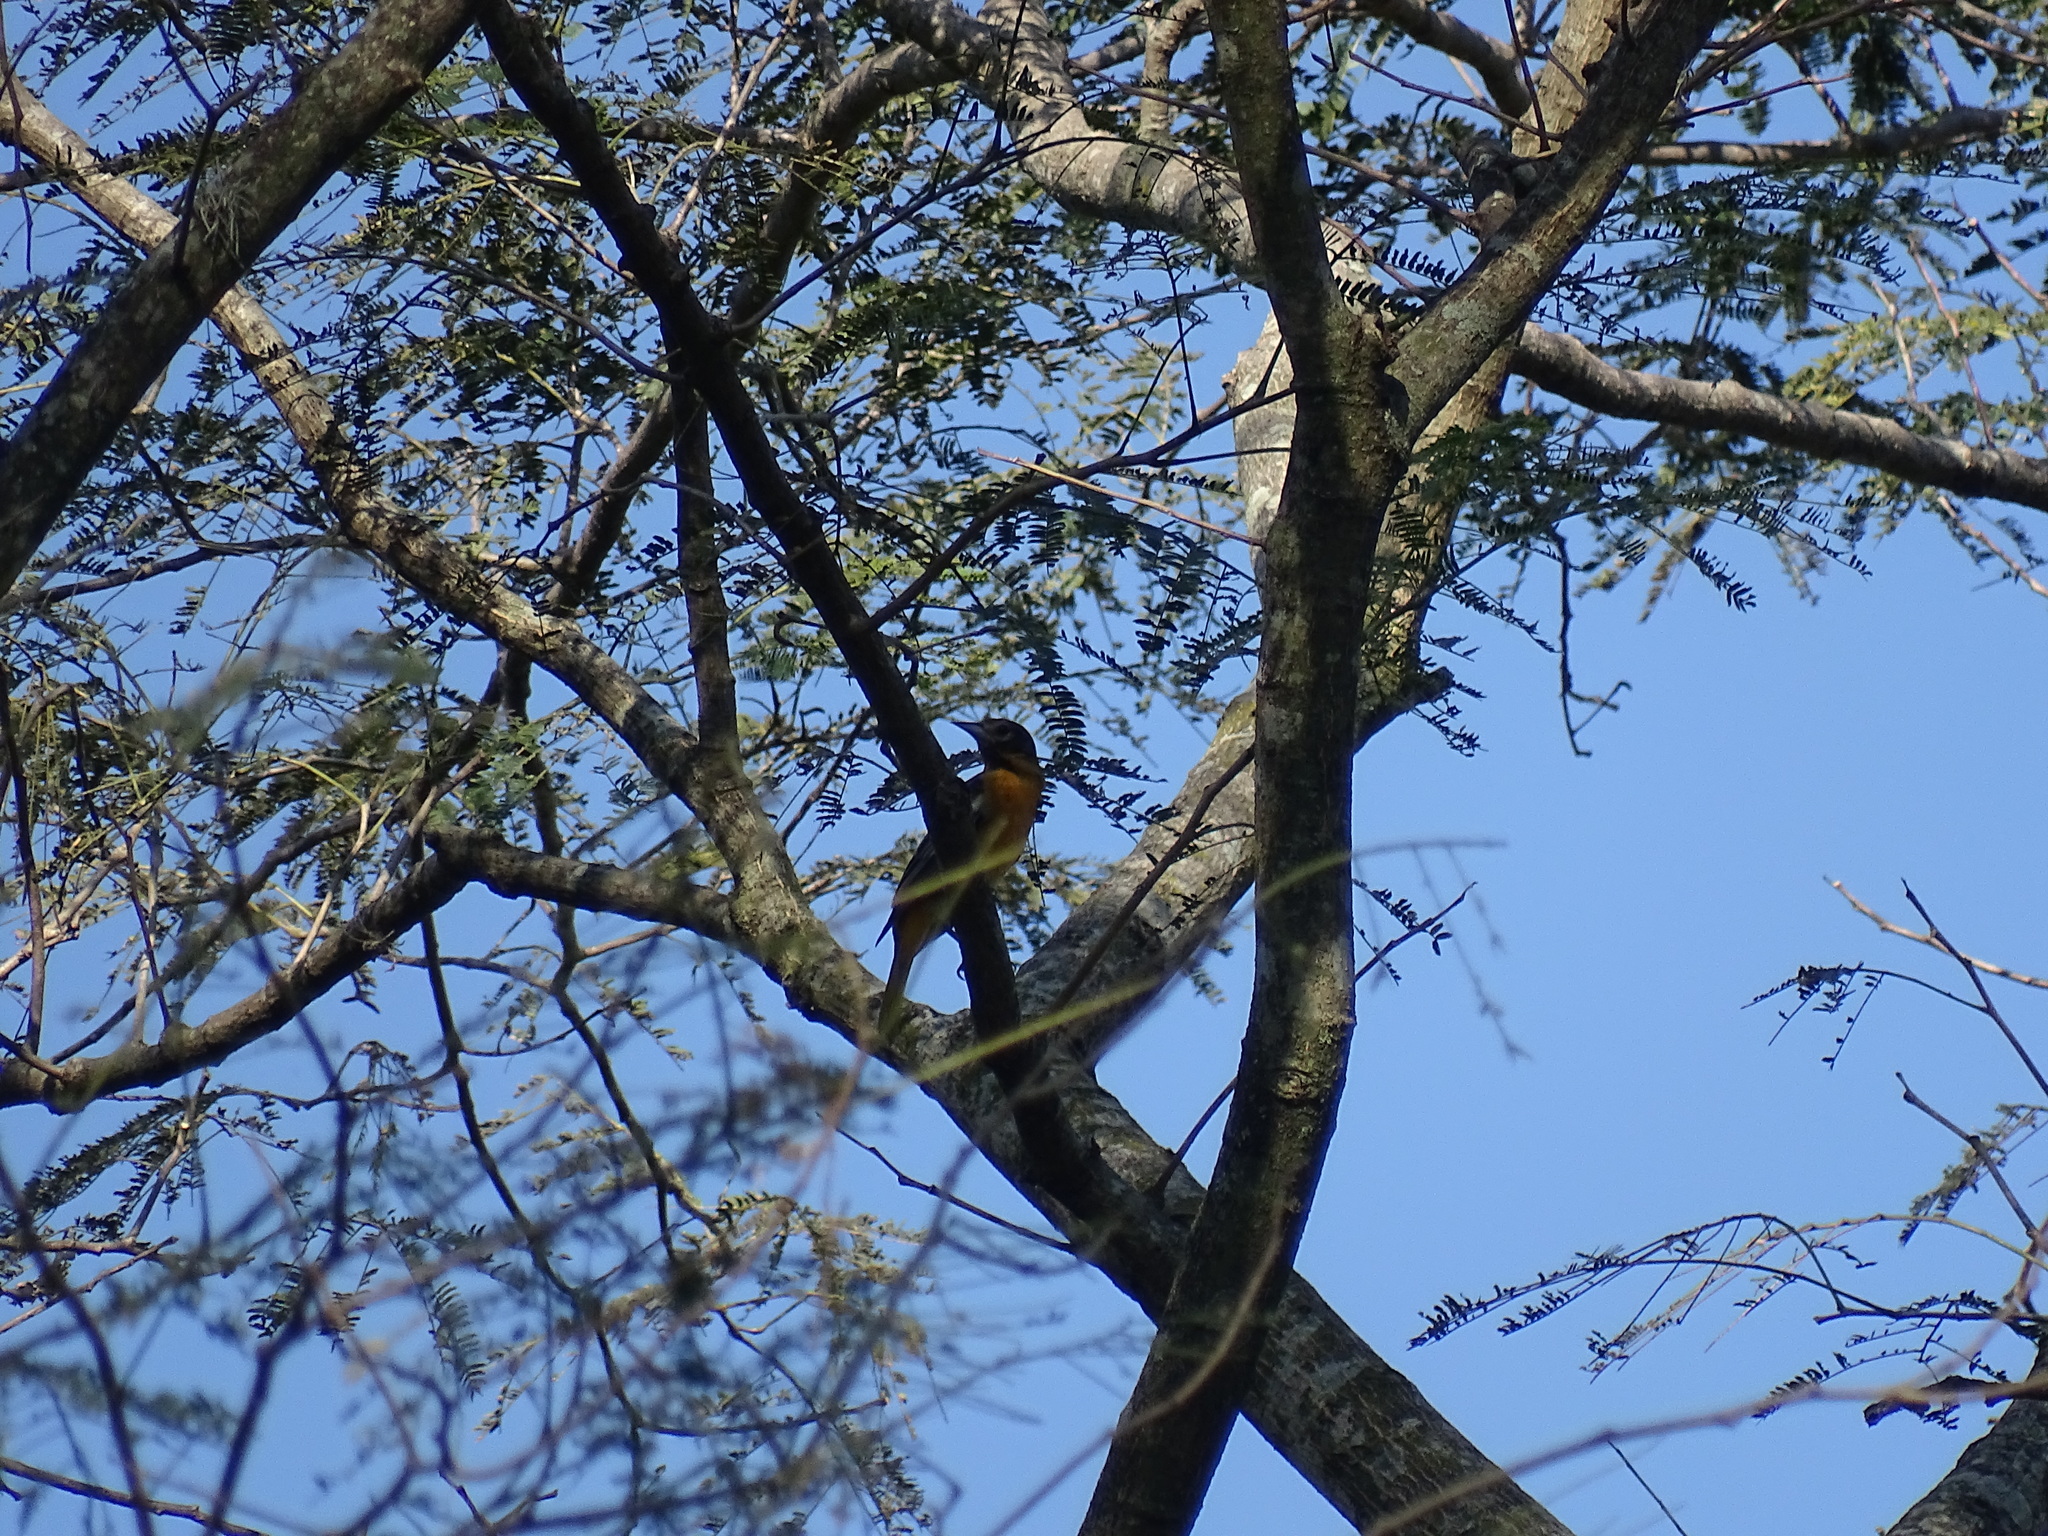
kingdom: Animalia
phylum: Chordata
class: Aves
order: Passeriformes
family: Icteridae
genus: Icterus
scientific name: Icterus galbula
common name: Baltimore oriole
